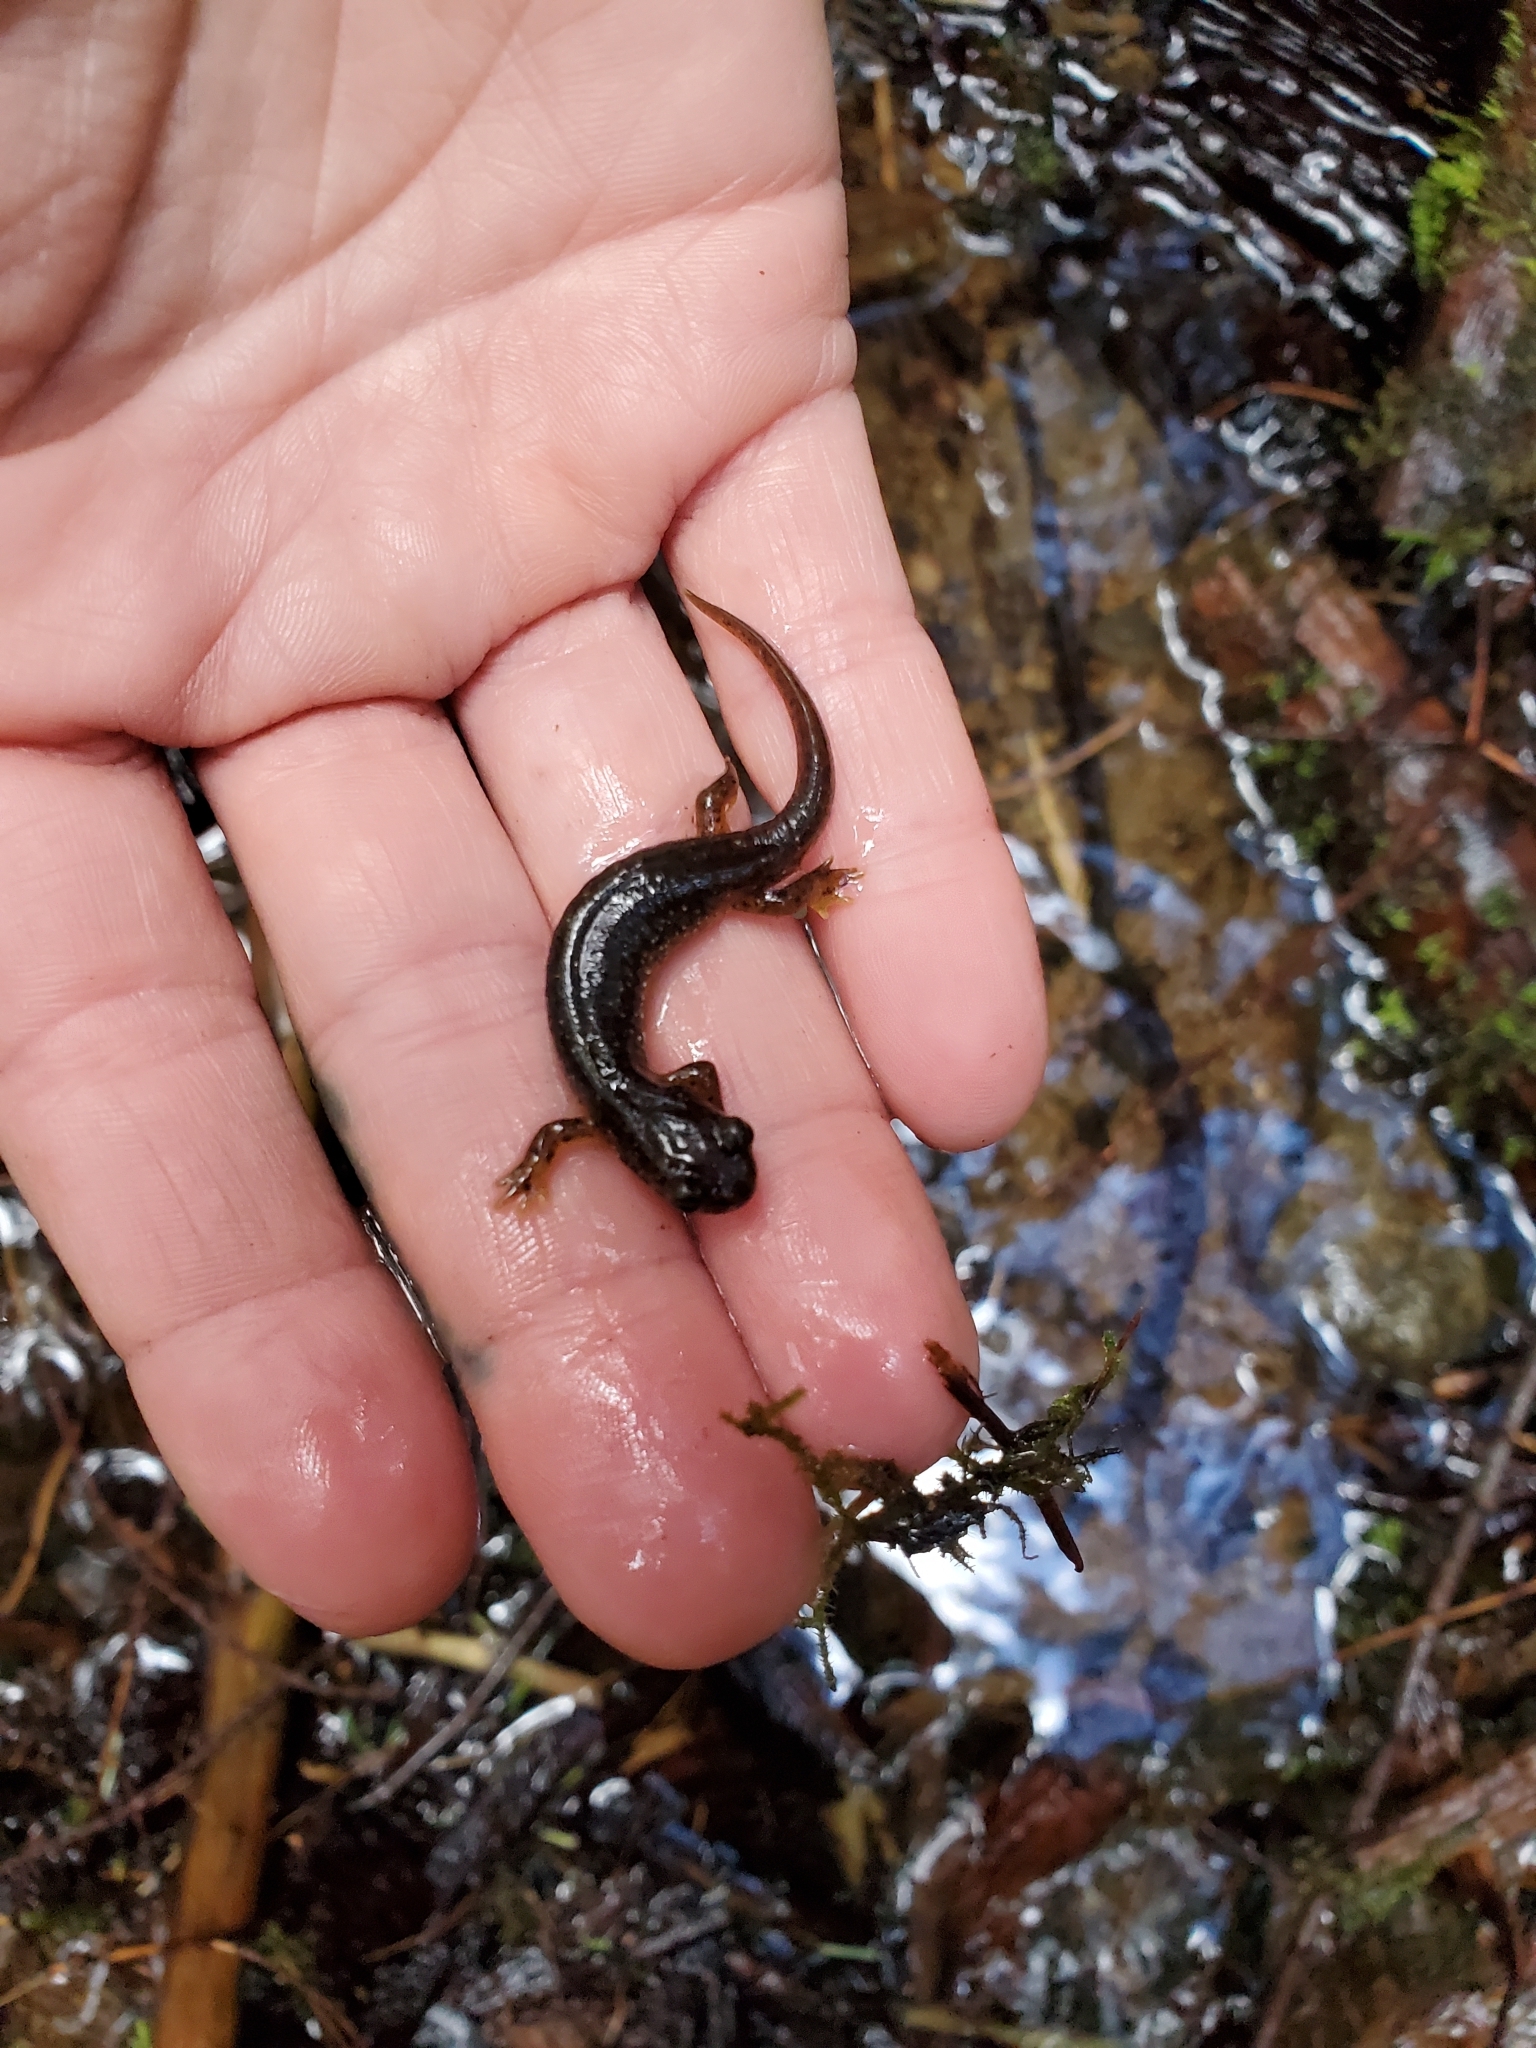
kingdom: Animalia
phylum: Chordata
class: Amphibia
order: Caudata
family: Rhyacotritonidae
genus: Rhyacotriton
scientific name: Rhyacotriton variegatus
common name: Southern torrent salamander
